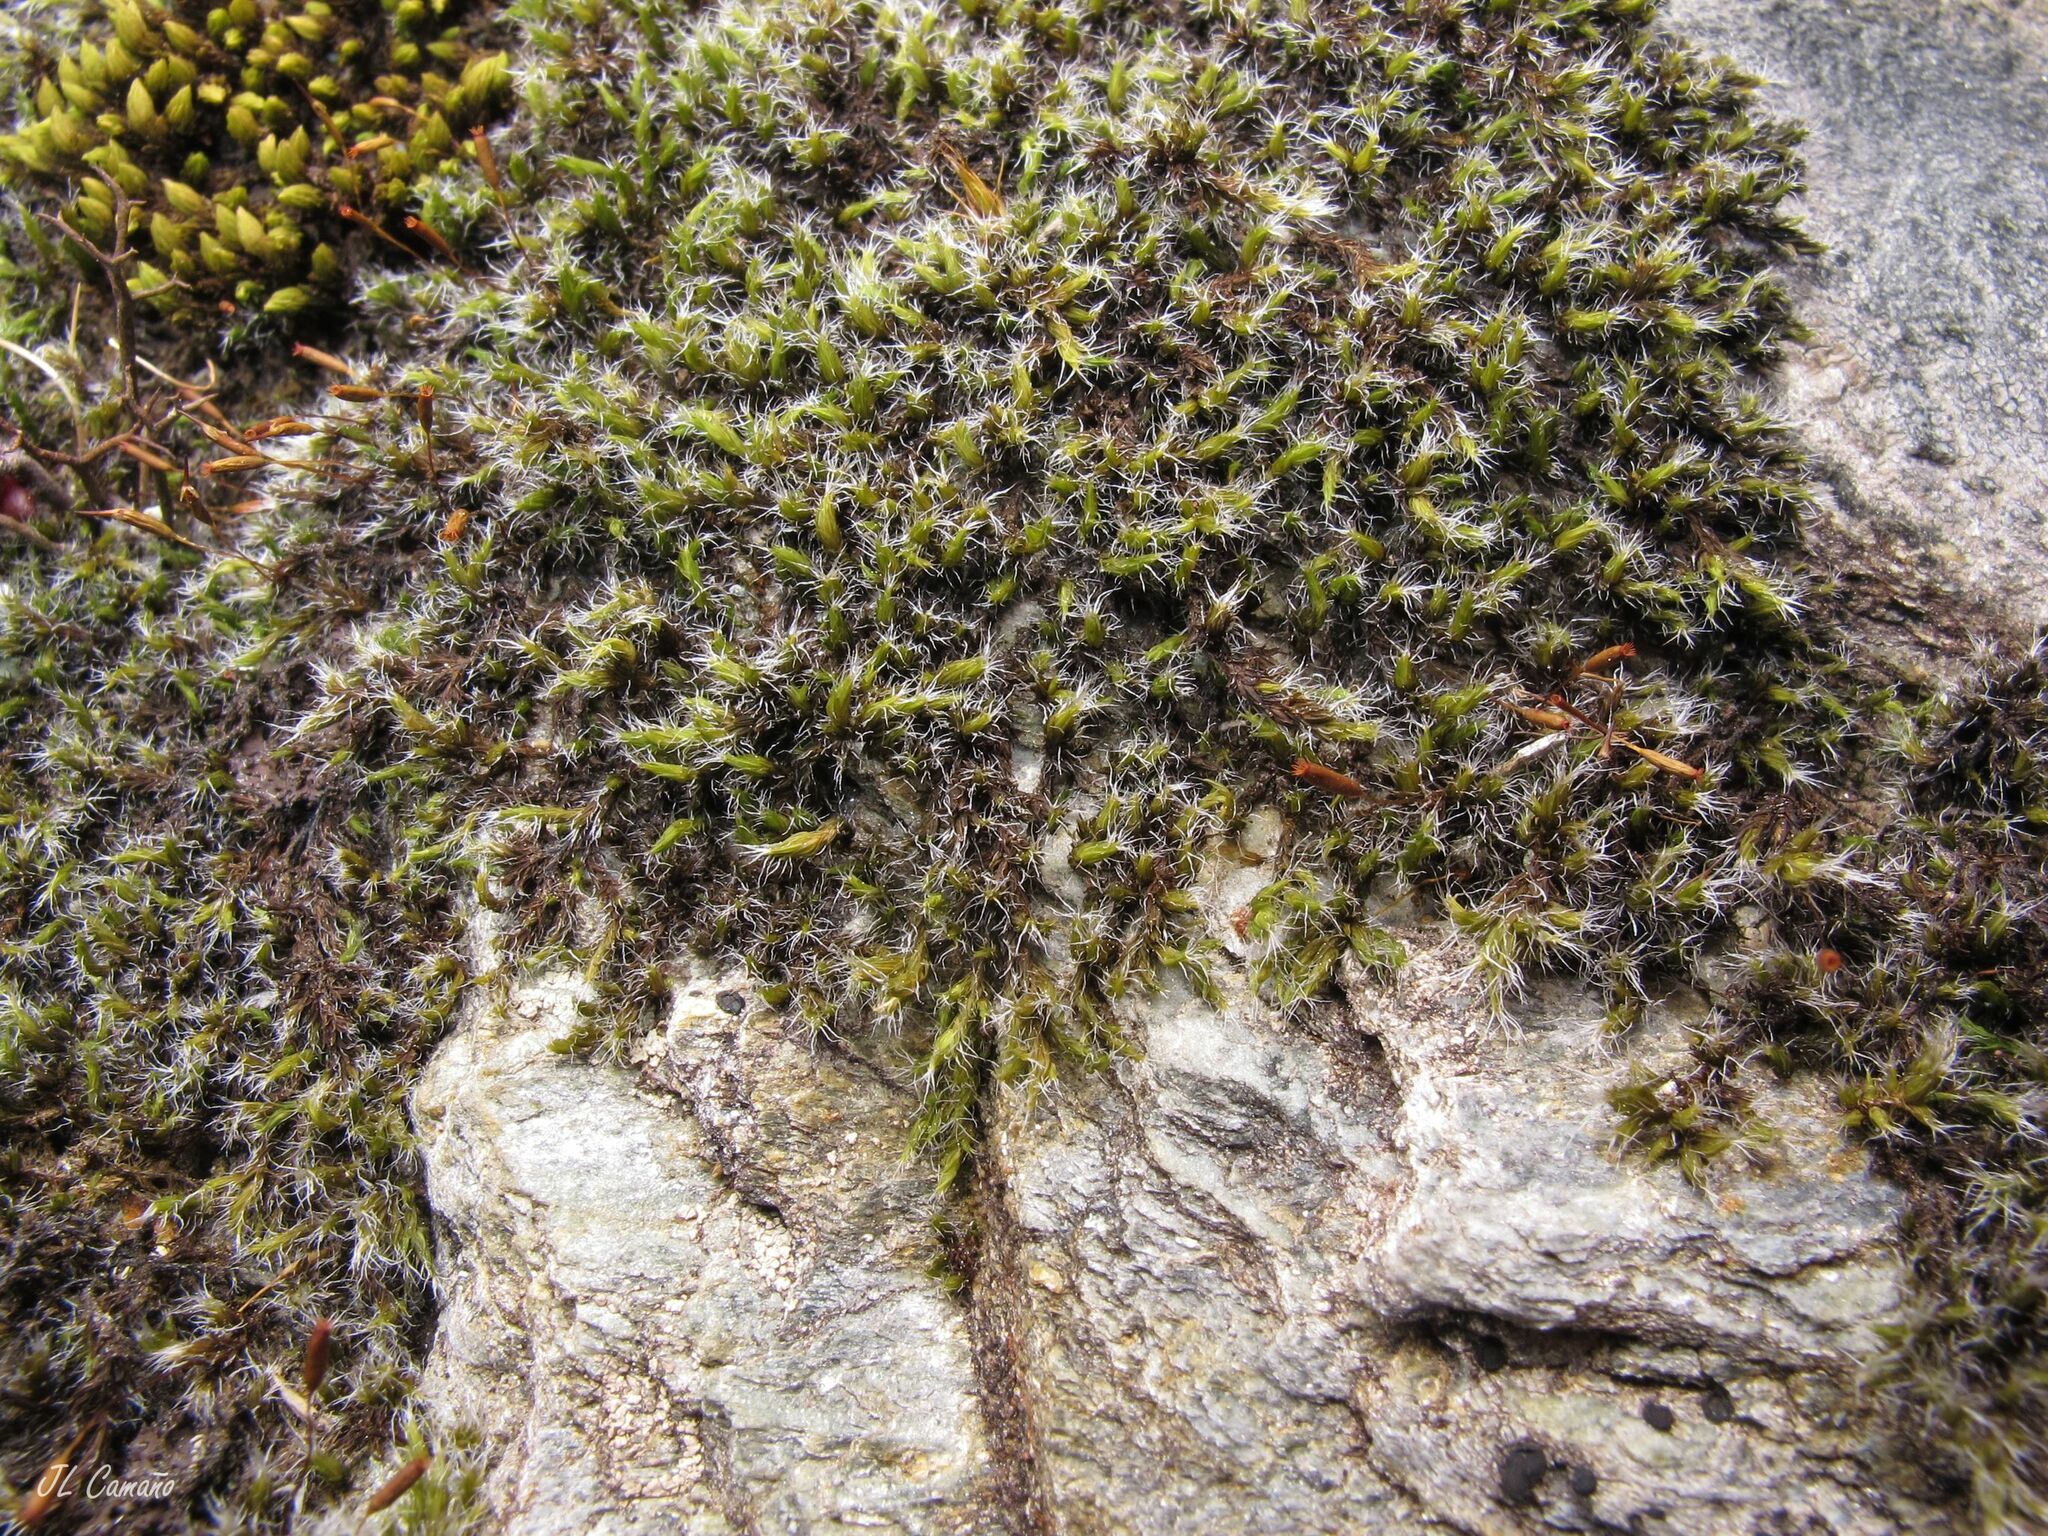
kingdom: Plantae
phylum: Bryophyta
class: Bryopsida
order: Grimmiales
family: Grimmiaceae
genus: Bucklandiella
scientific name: Bucklandiella heterosticha
